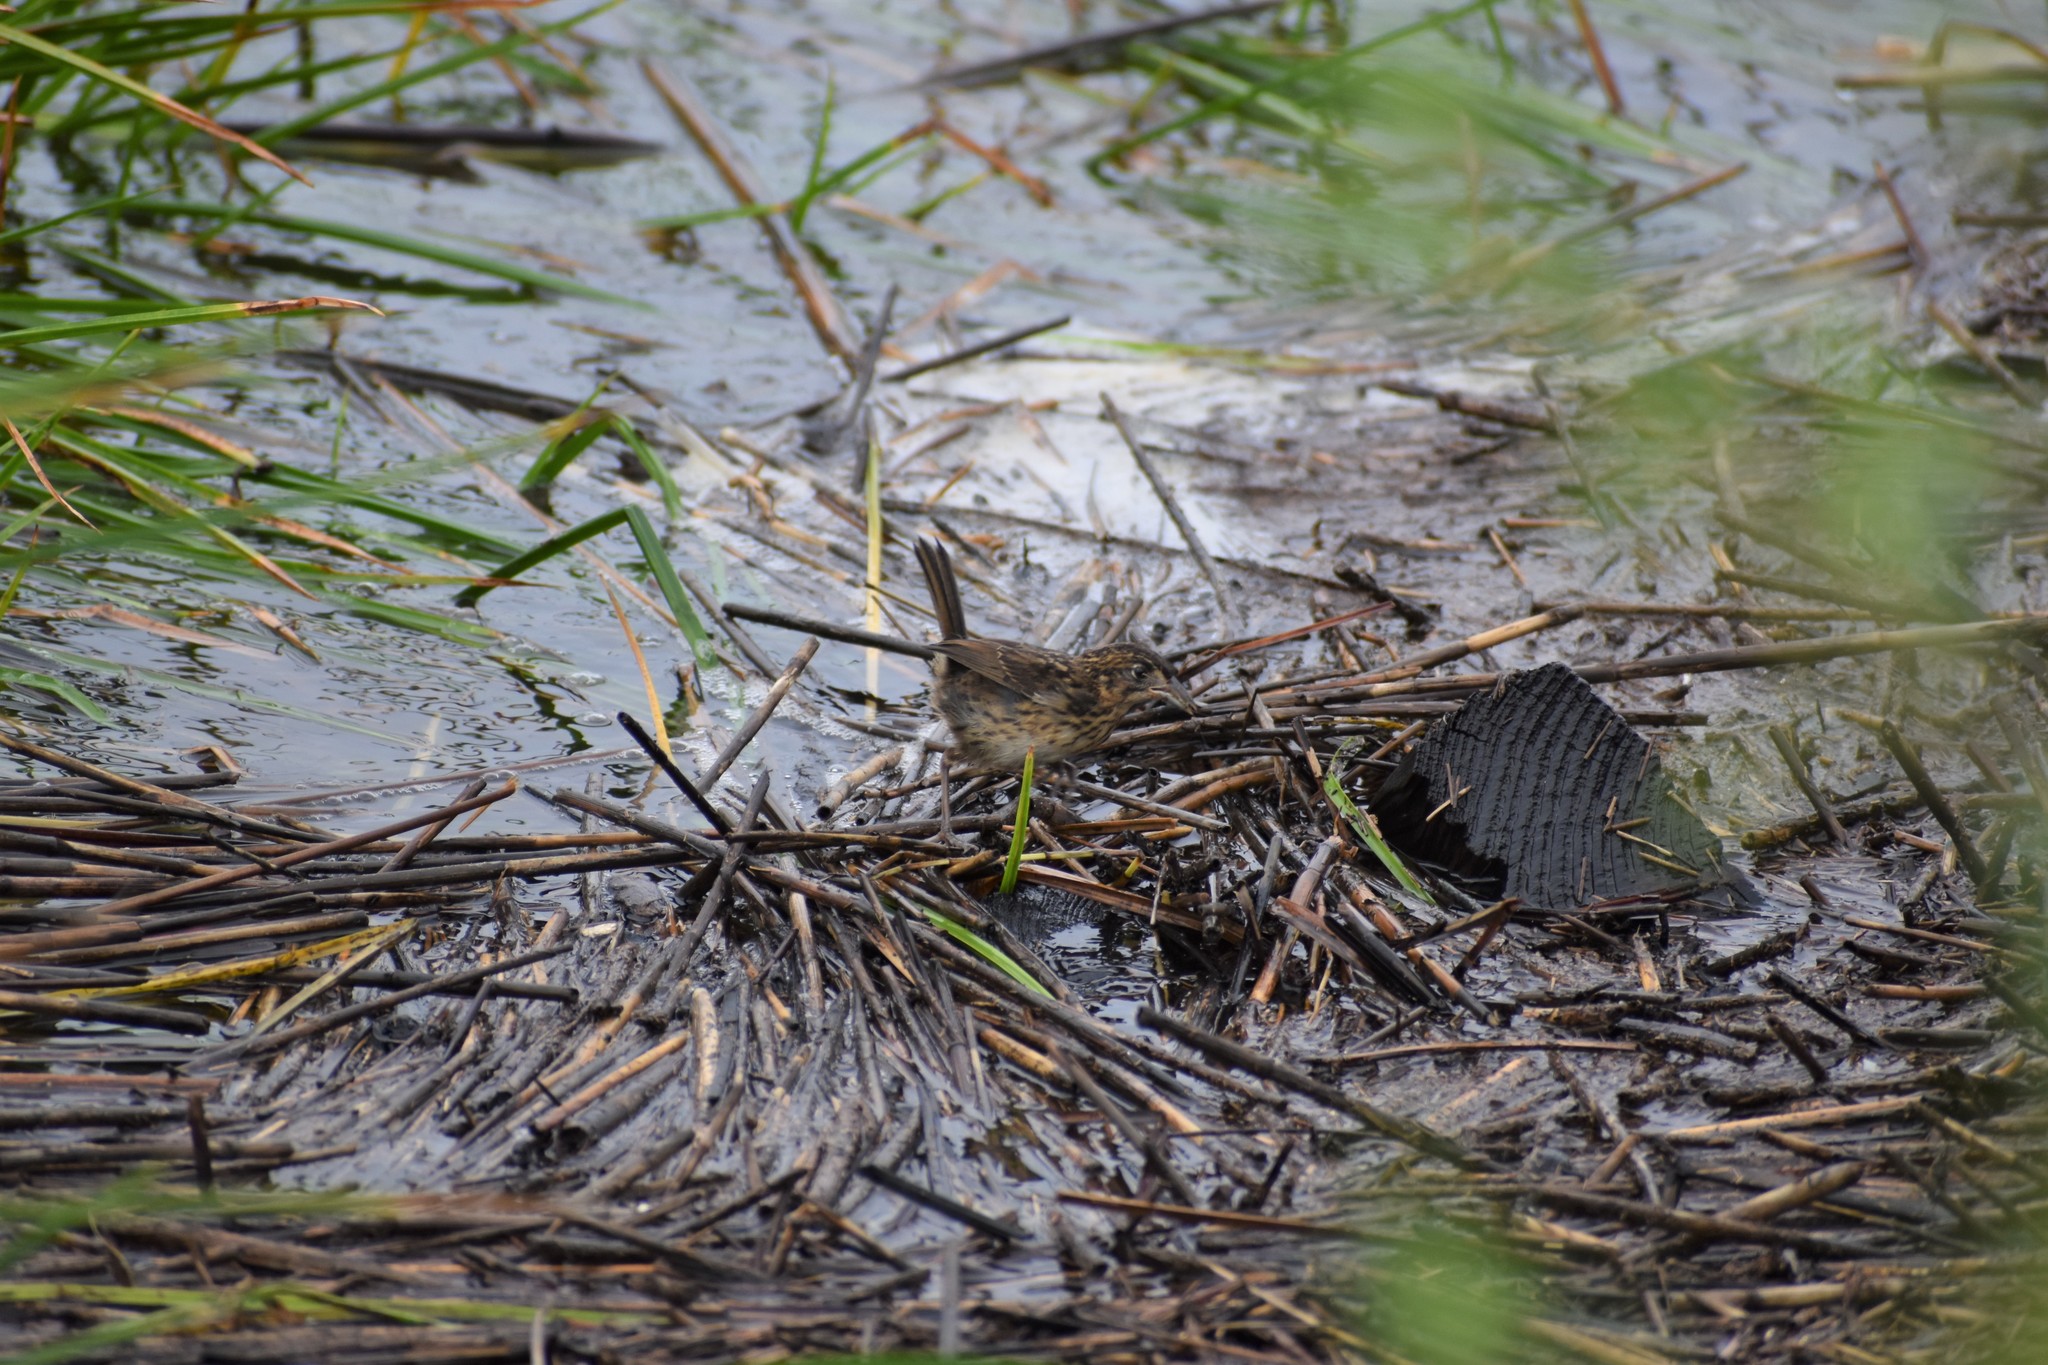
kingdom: Animalia
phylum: Chordata
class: Aves
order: Passeriformes
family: Passerellidae
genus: Ammospiza
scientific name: Ammospiza maritima
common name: Seaside sparrow
